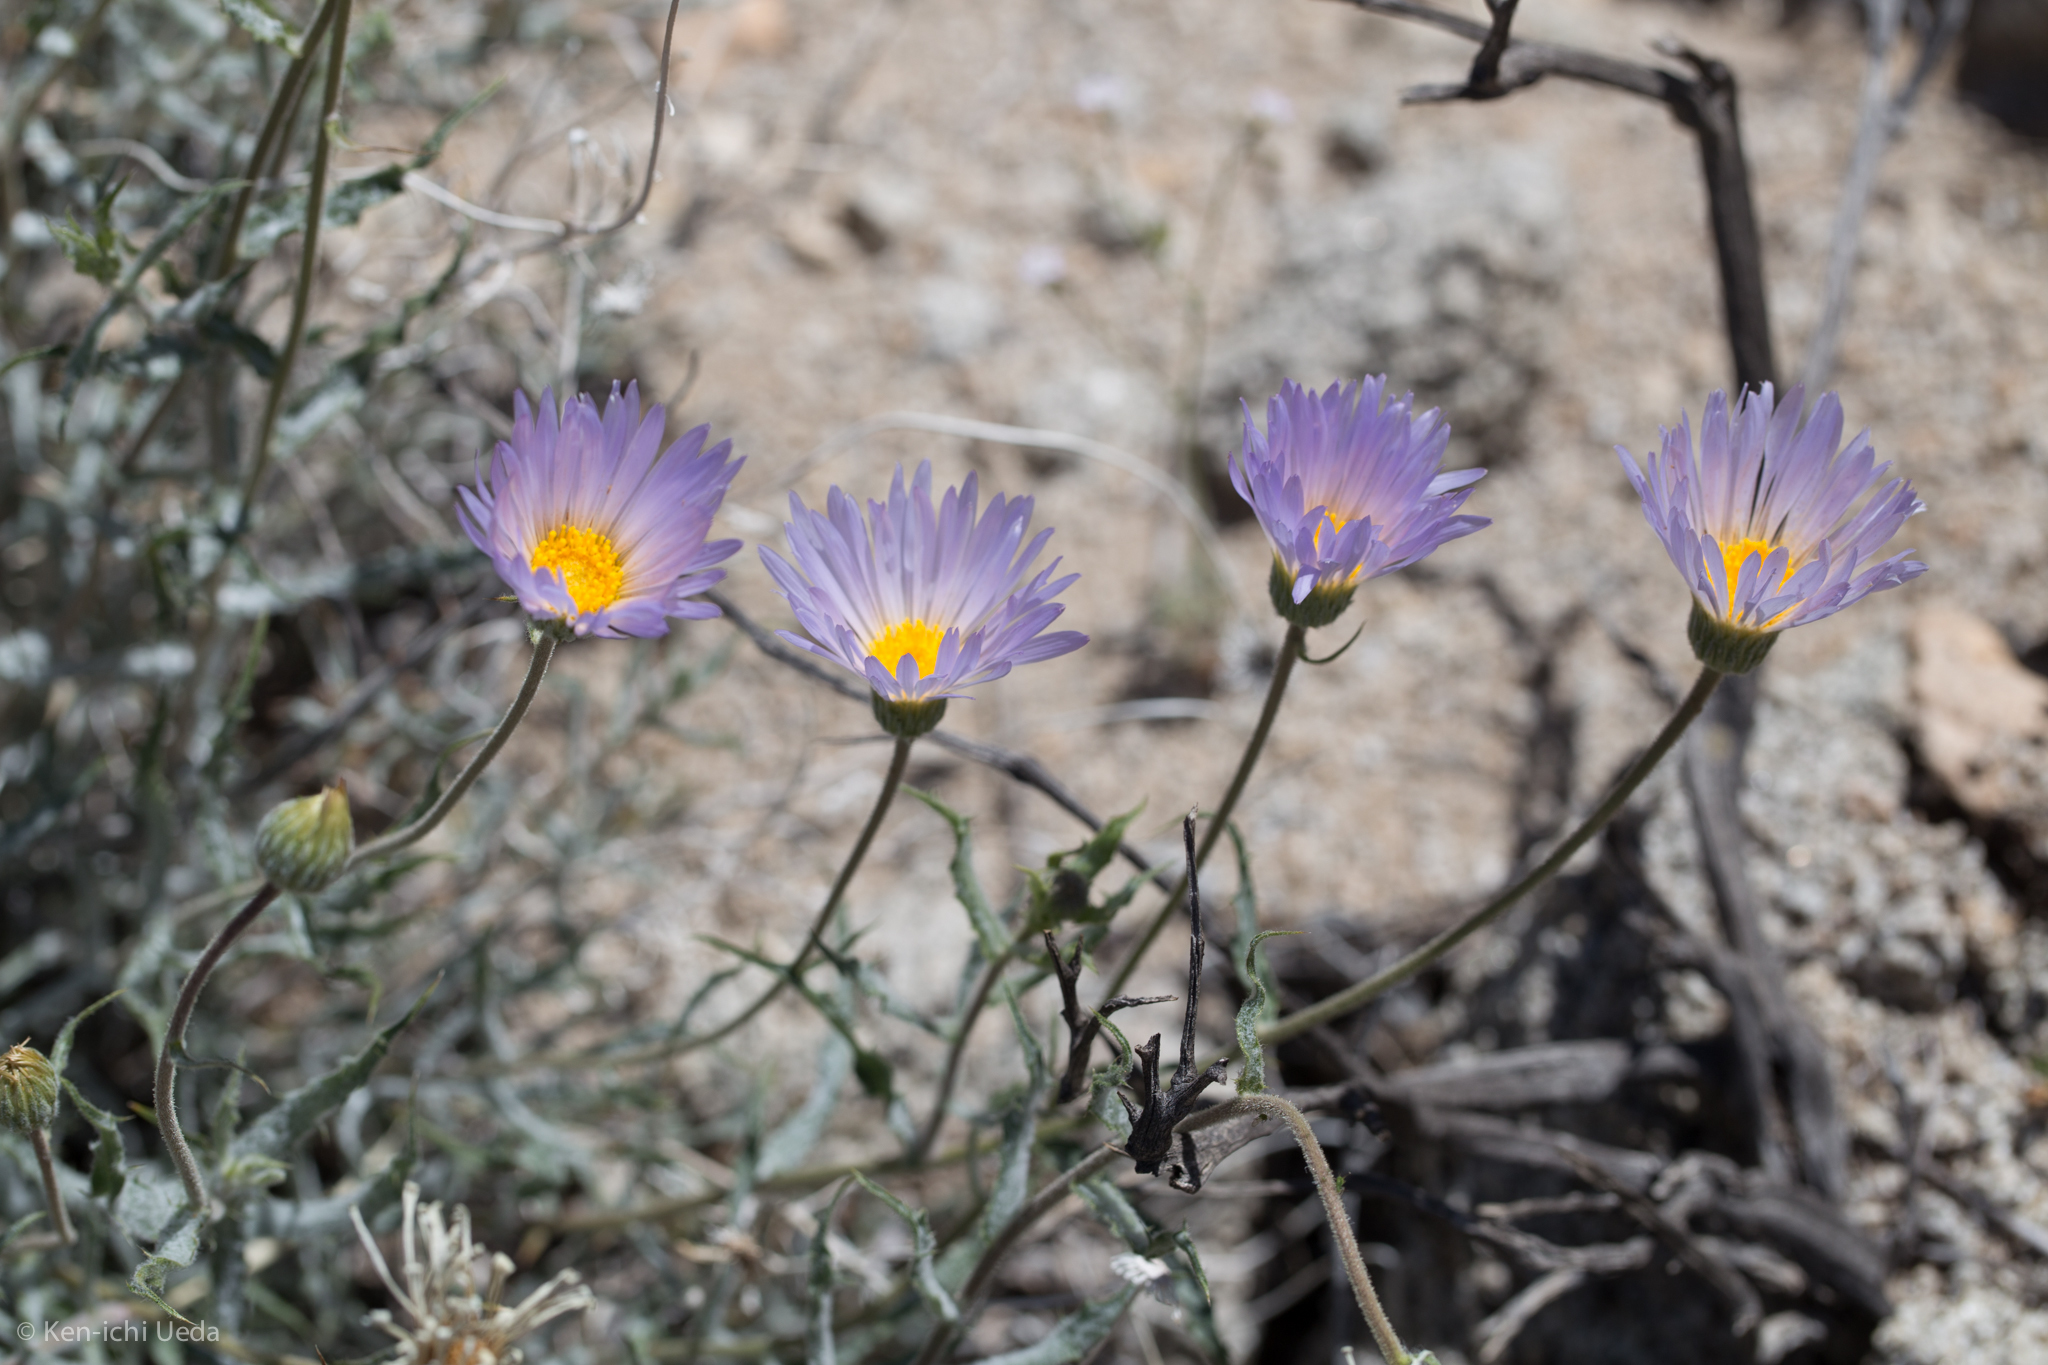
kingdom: Plantae
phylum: Tracheophyta
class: Magnoliopsida
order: Asterales
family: Asteraceae
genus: Xylorhiza
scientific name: Xylorhiza tortifolia
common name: Hurt-leaf woody-aster
